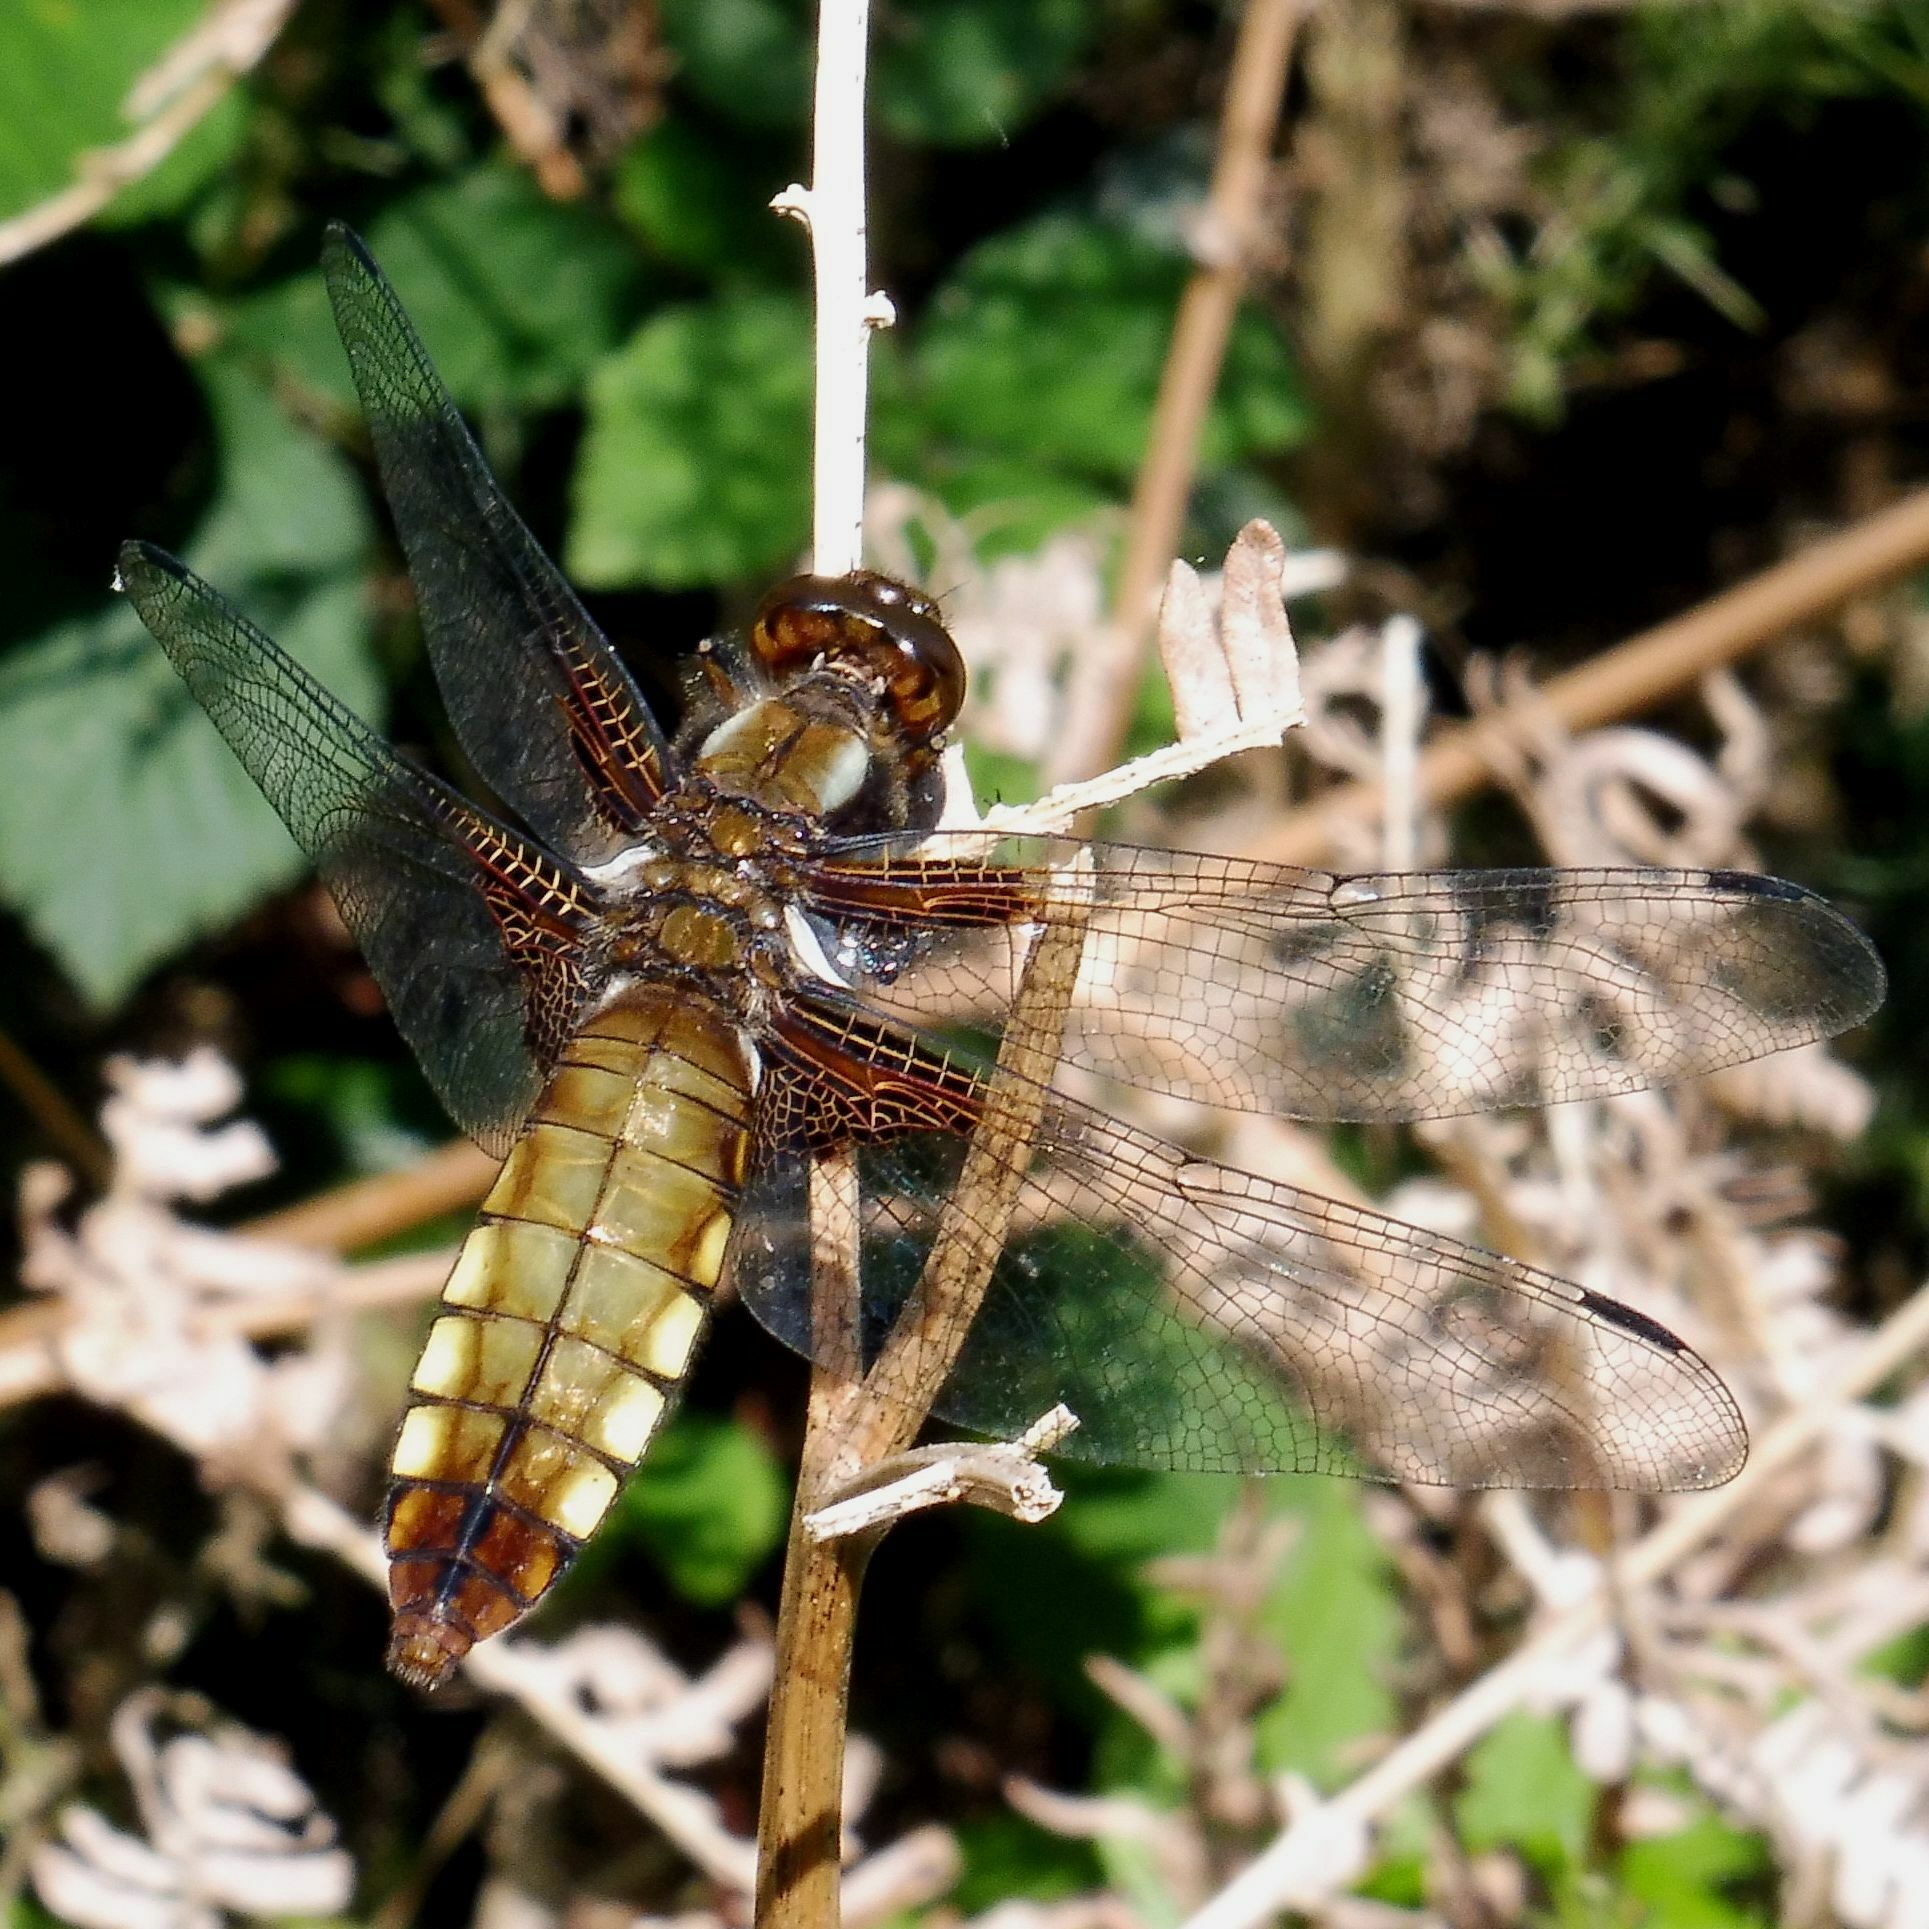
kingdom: Animalia
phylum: Arthropoda
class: Insecta
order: Odonata
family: Libellulidae
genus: Libellula
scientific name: Libellula depressa
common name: Broad-bodied chaser
